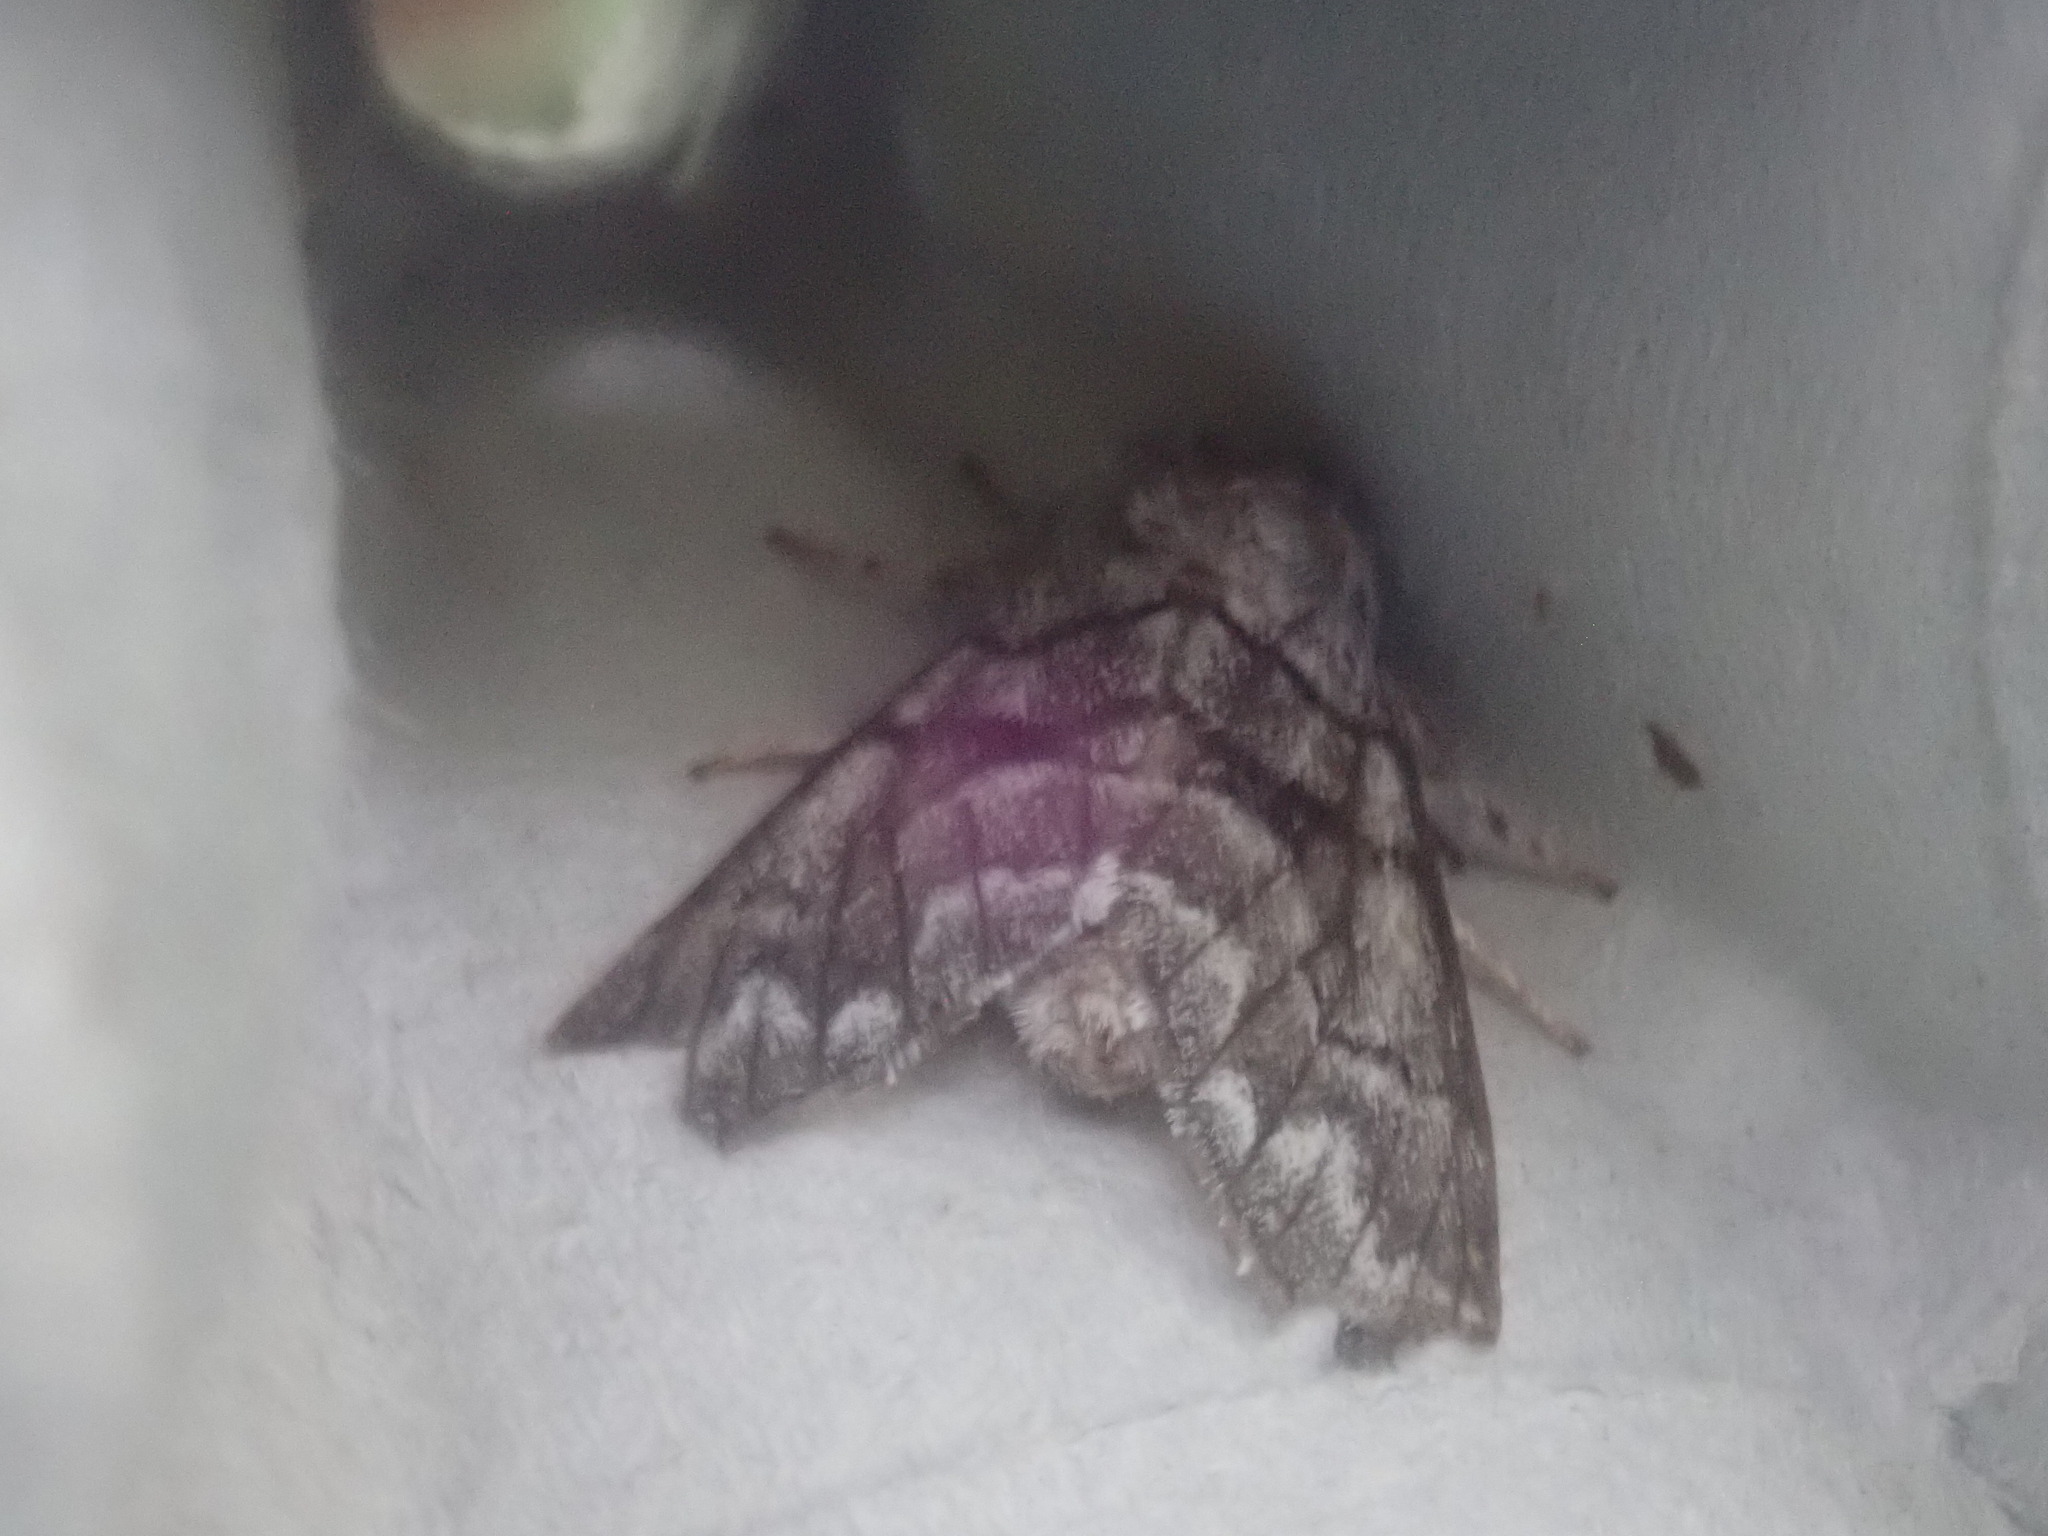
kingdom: Animalia
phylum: Arthropoda
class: Insecta
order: Lepidoptera
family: Noctuidae
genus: Panthea
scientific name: Panthea furcilla
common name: Eastern panthea moth
